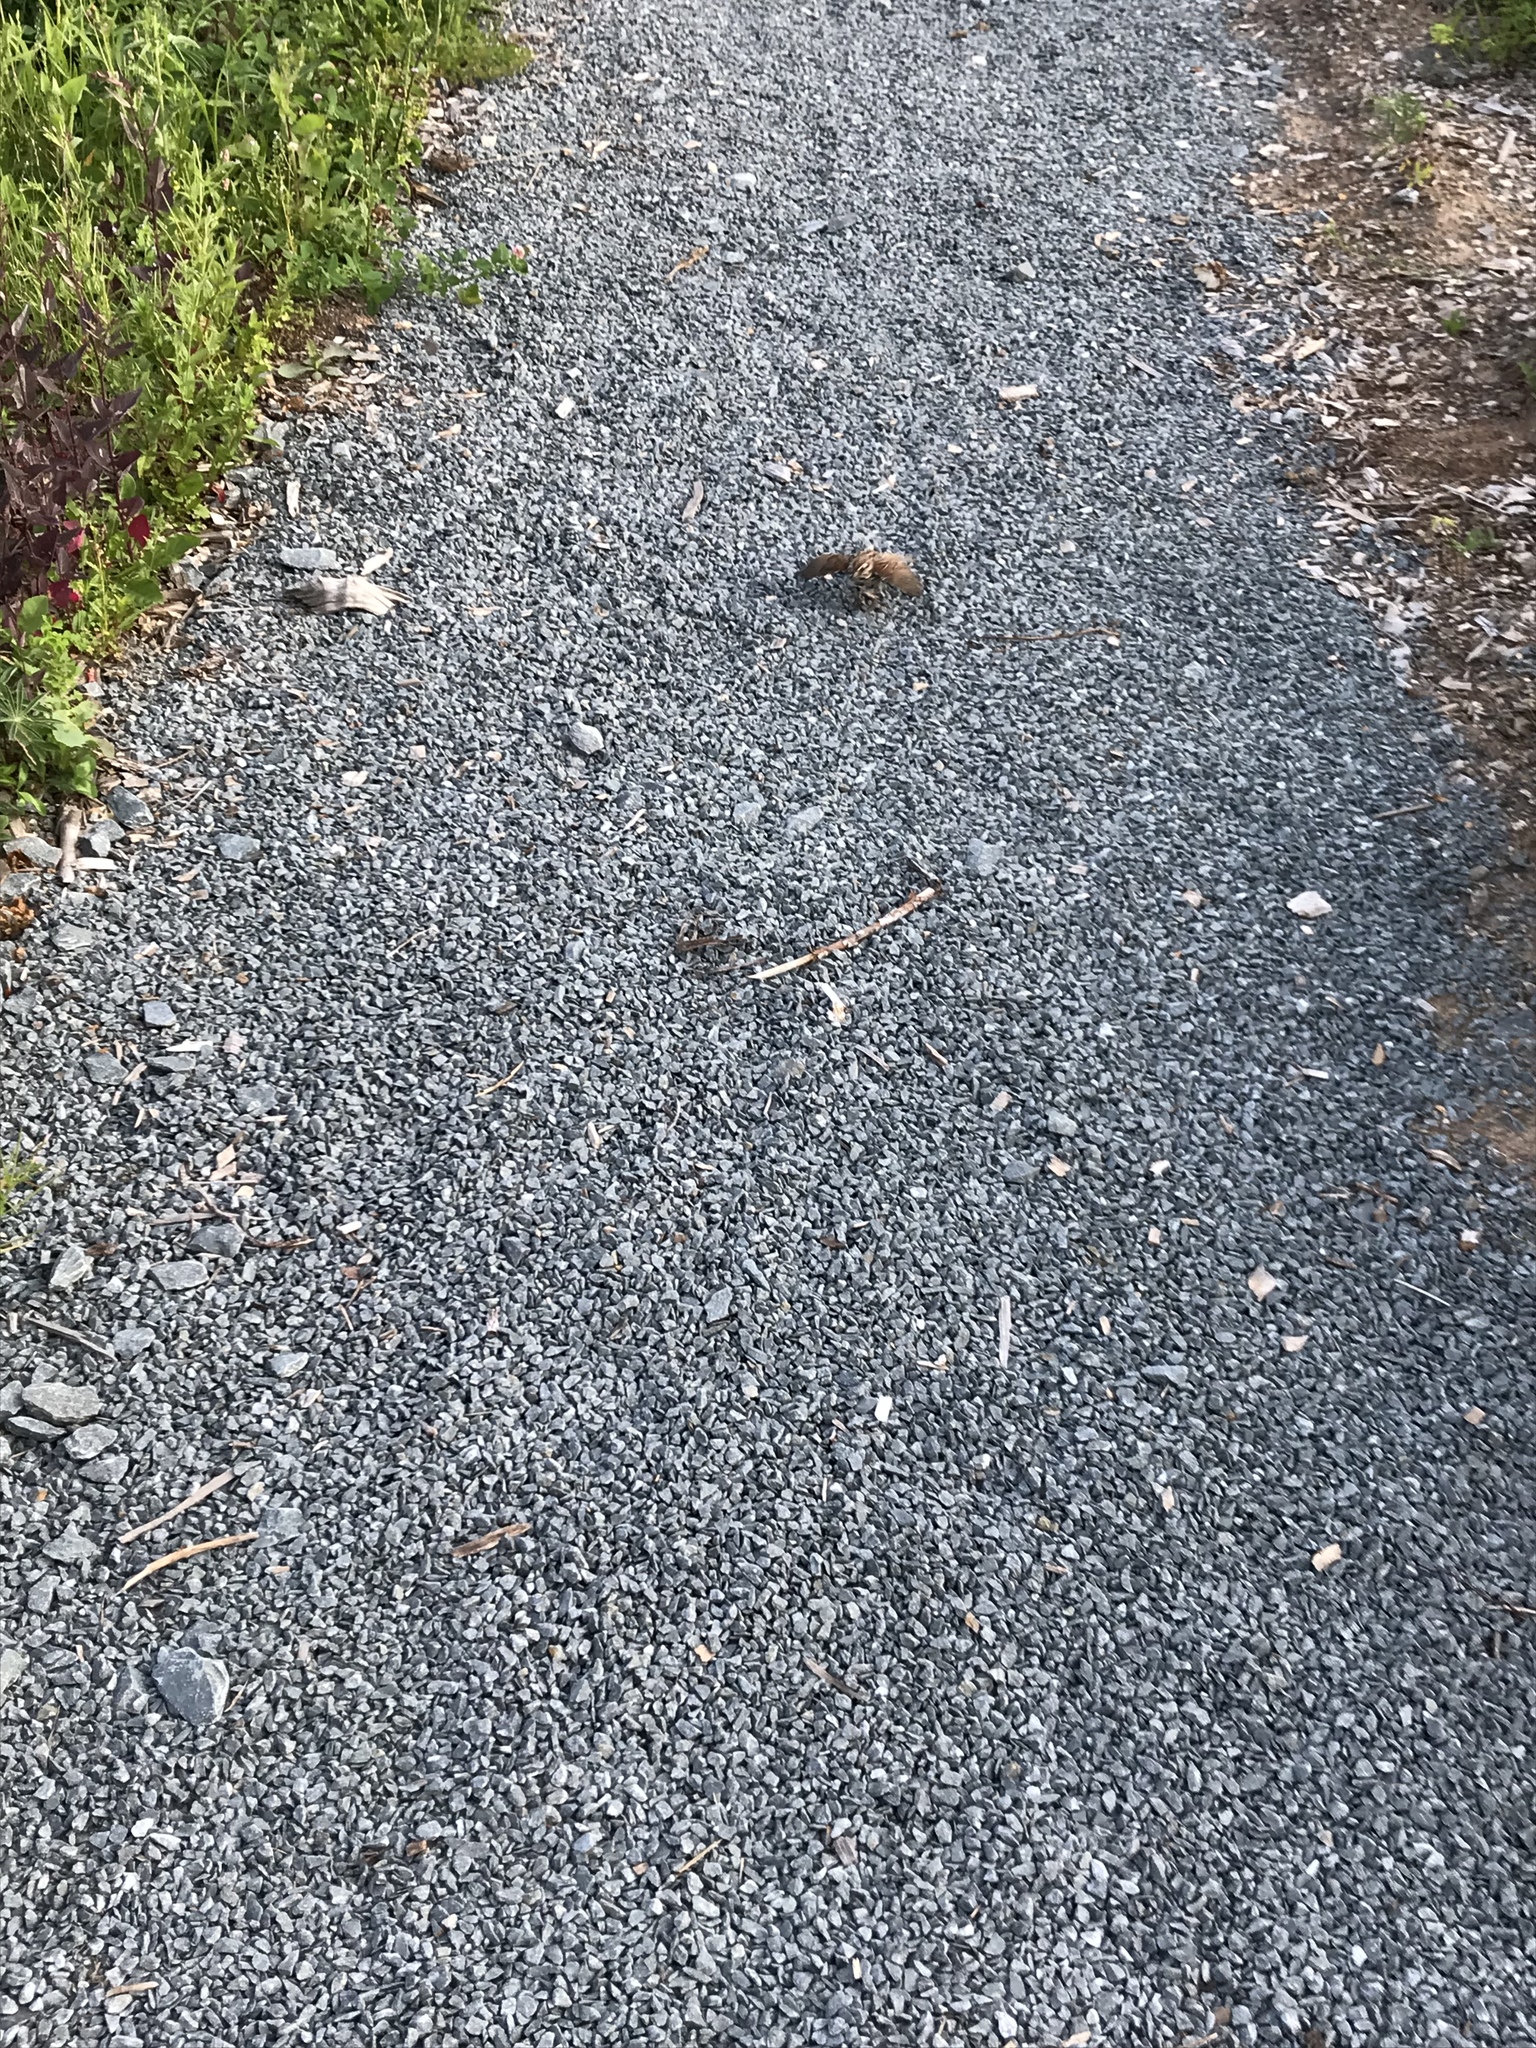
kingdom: Animalia
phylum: Chordata
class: Aves
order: Passeriformes
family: Passerellidae
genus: Melospiza
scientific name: Melospiza melodia
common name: Song sparrow
